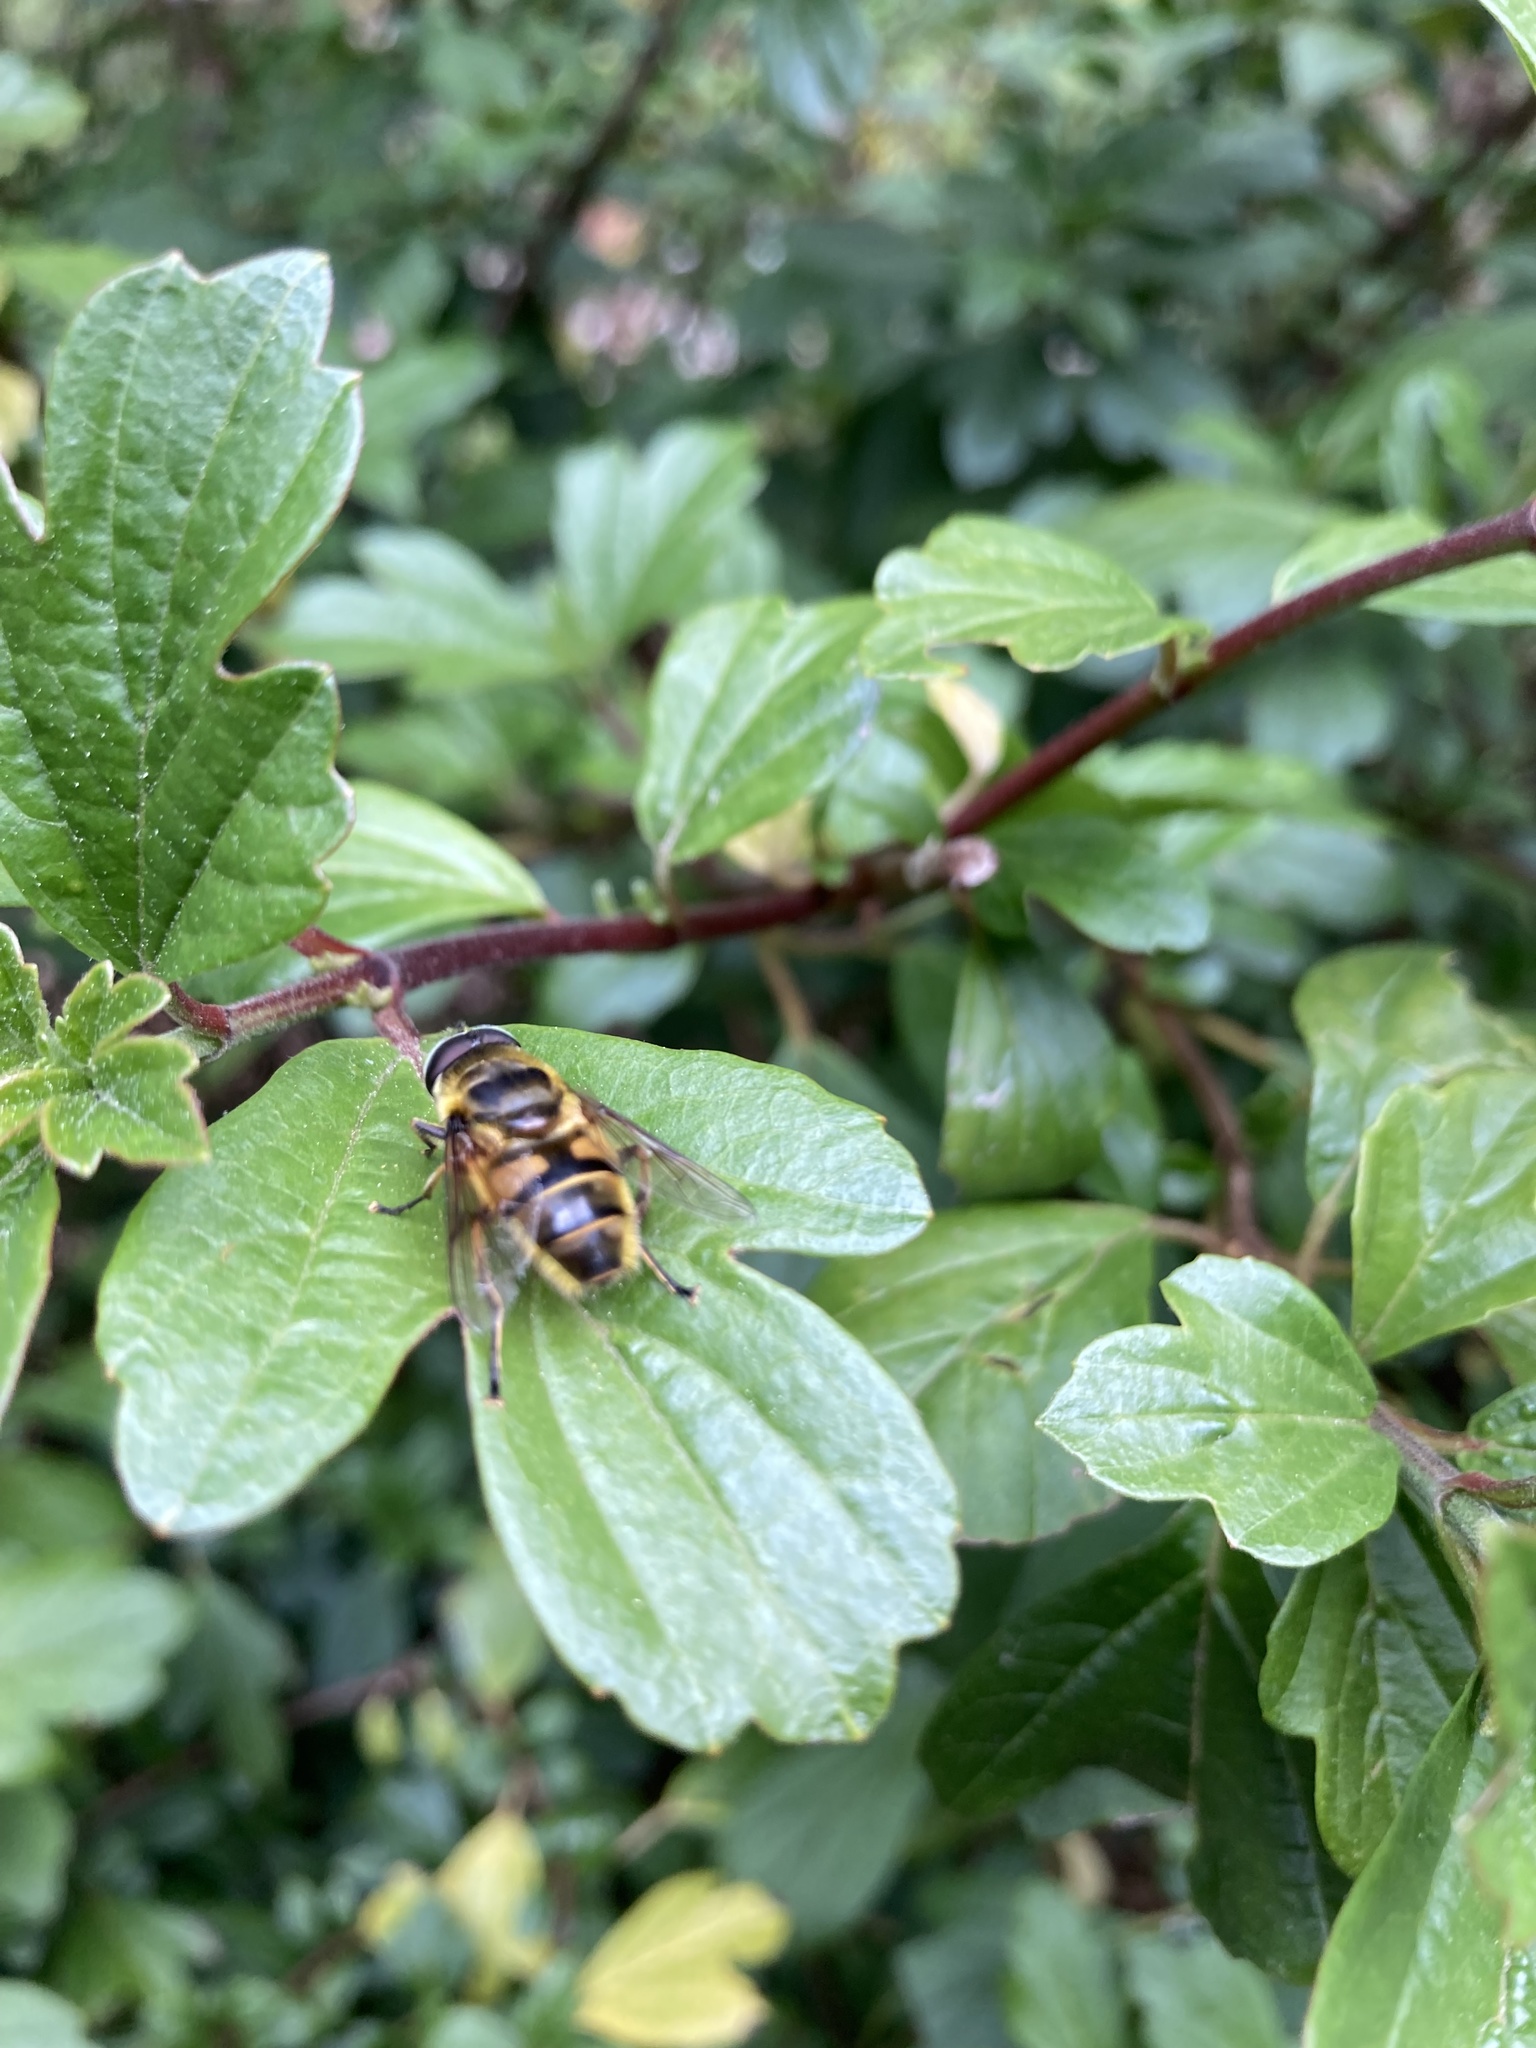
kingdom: Animalia
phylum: Arthropoda
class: Insecta
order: Diptera
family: Syrphidae
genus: Myathropa
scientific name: Myathropa florea
